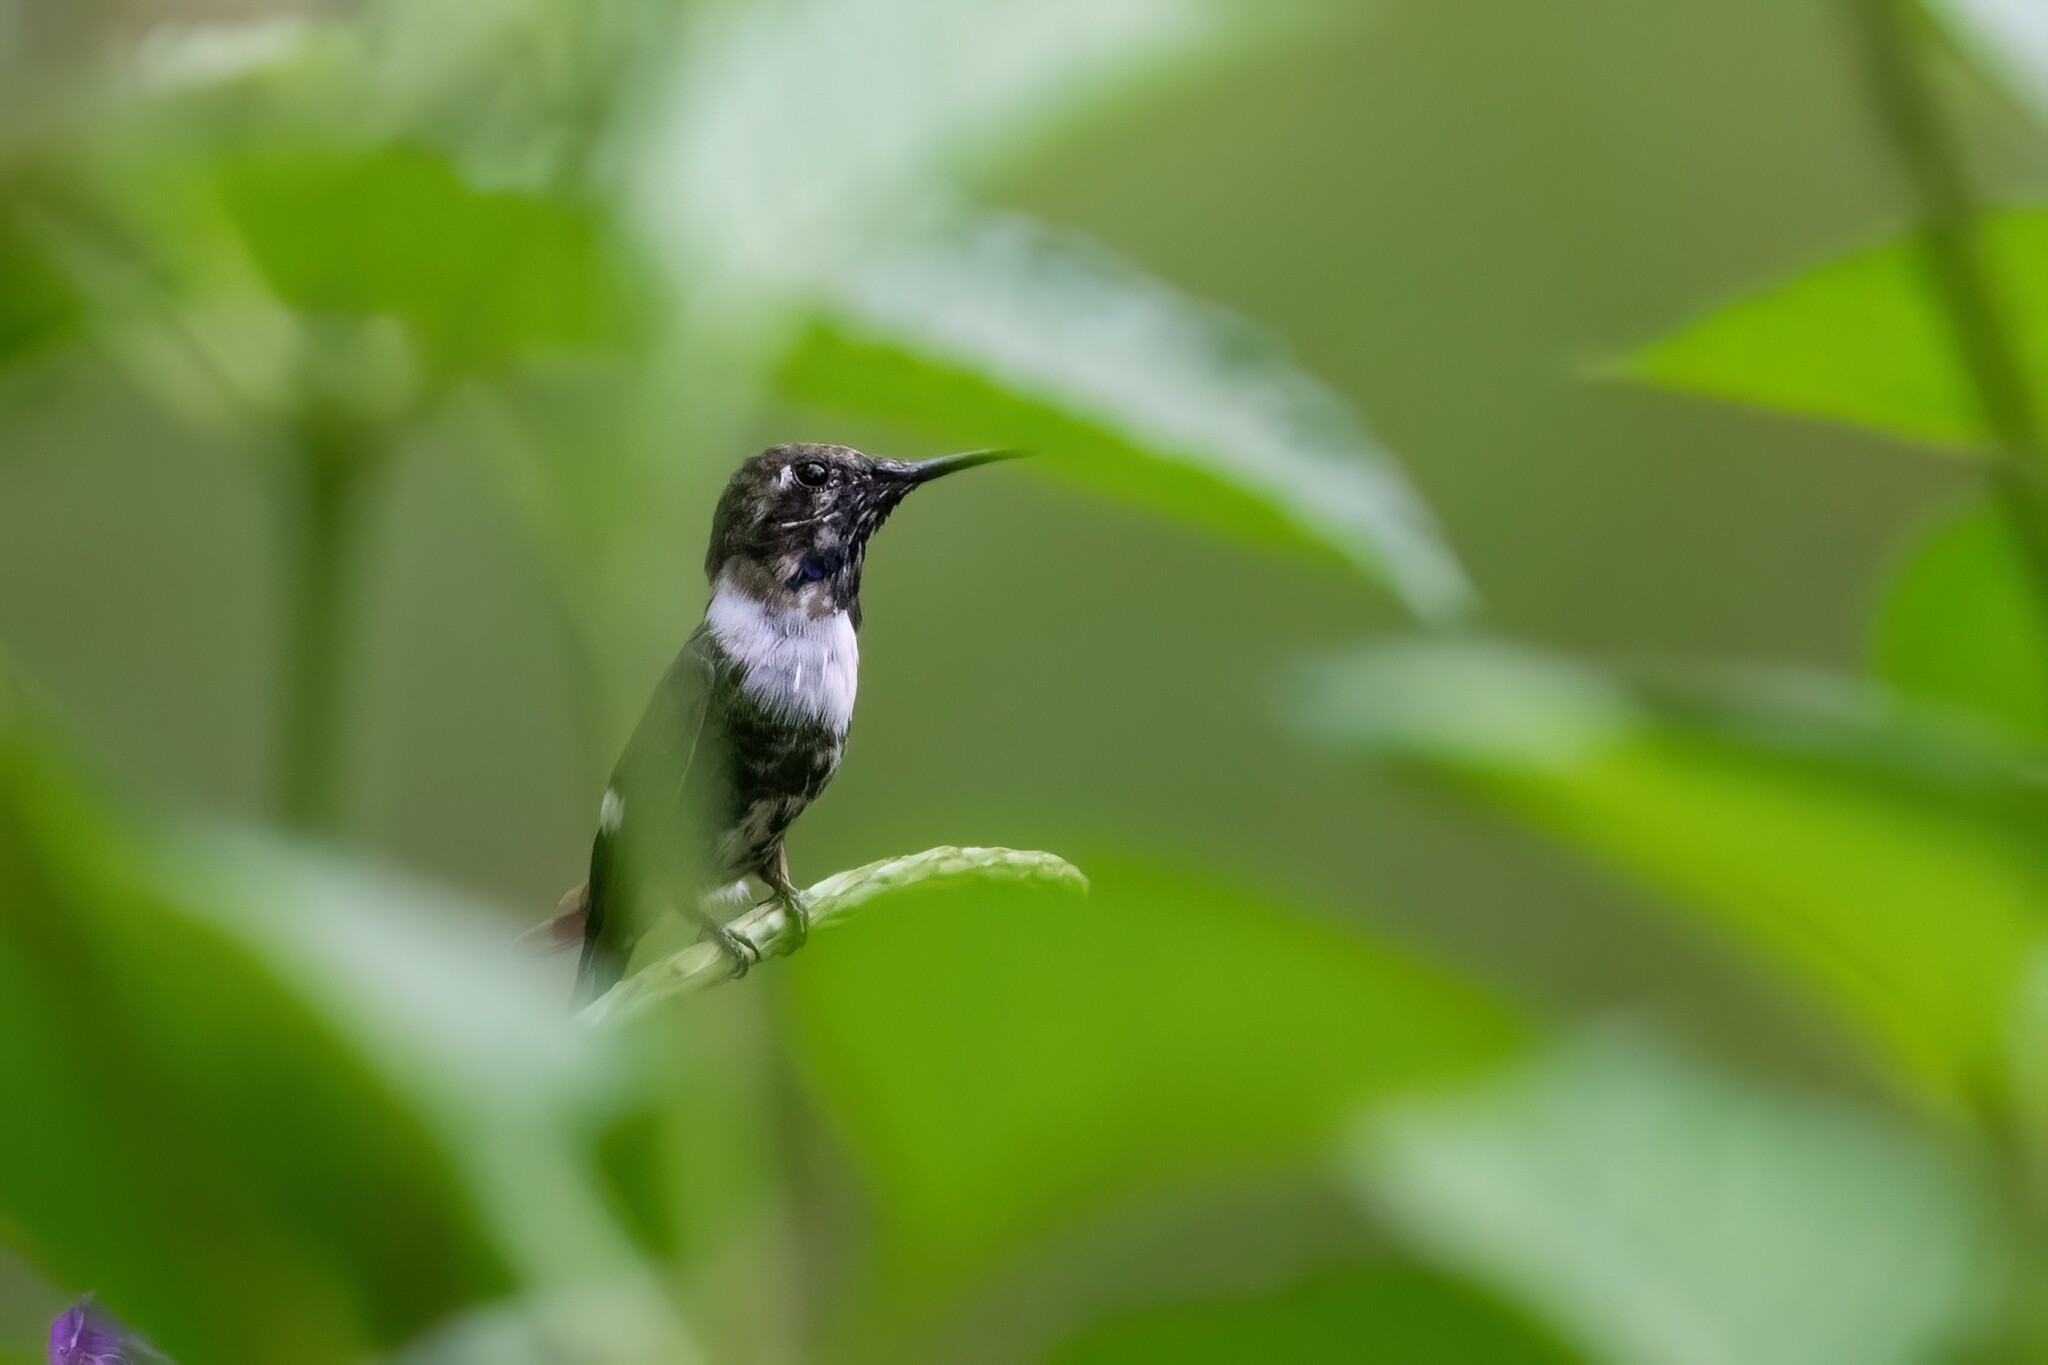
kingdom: Animalia
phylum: Chordata
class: Aves
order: Apodiformes
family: Trochilidae
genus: Tilmatura
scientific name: Tilmatura dupontii
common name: Sparkling-tailed woodstar
